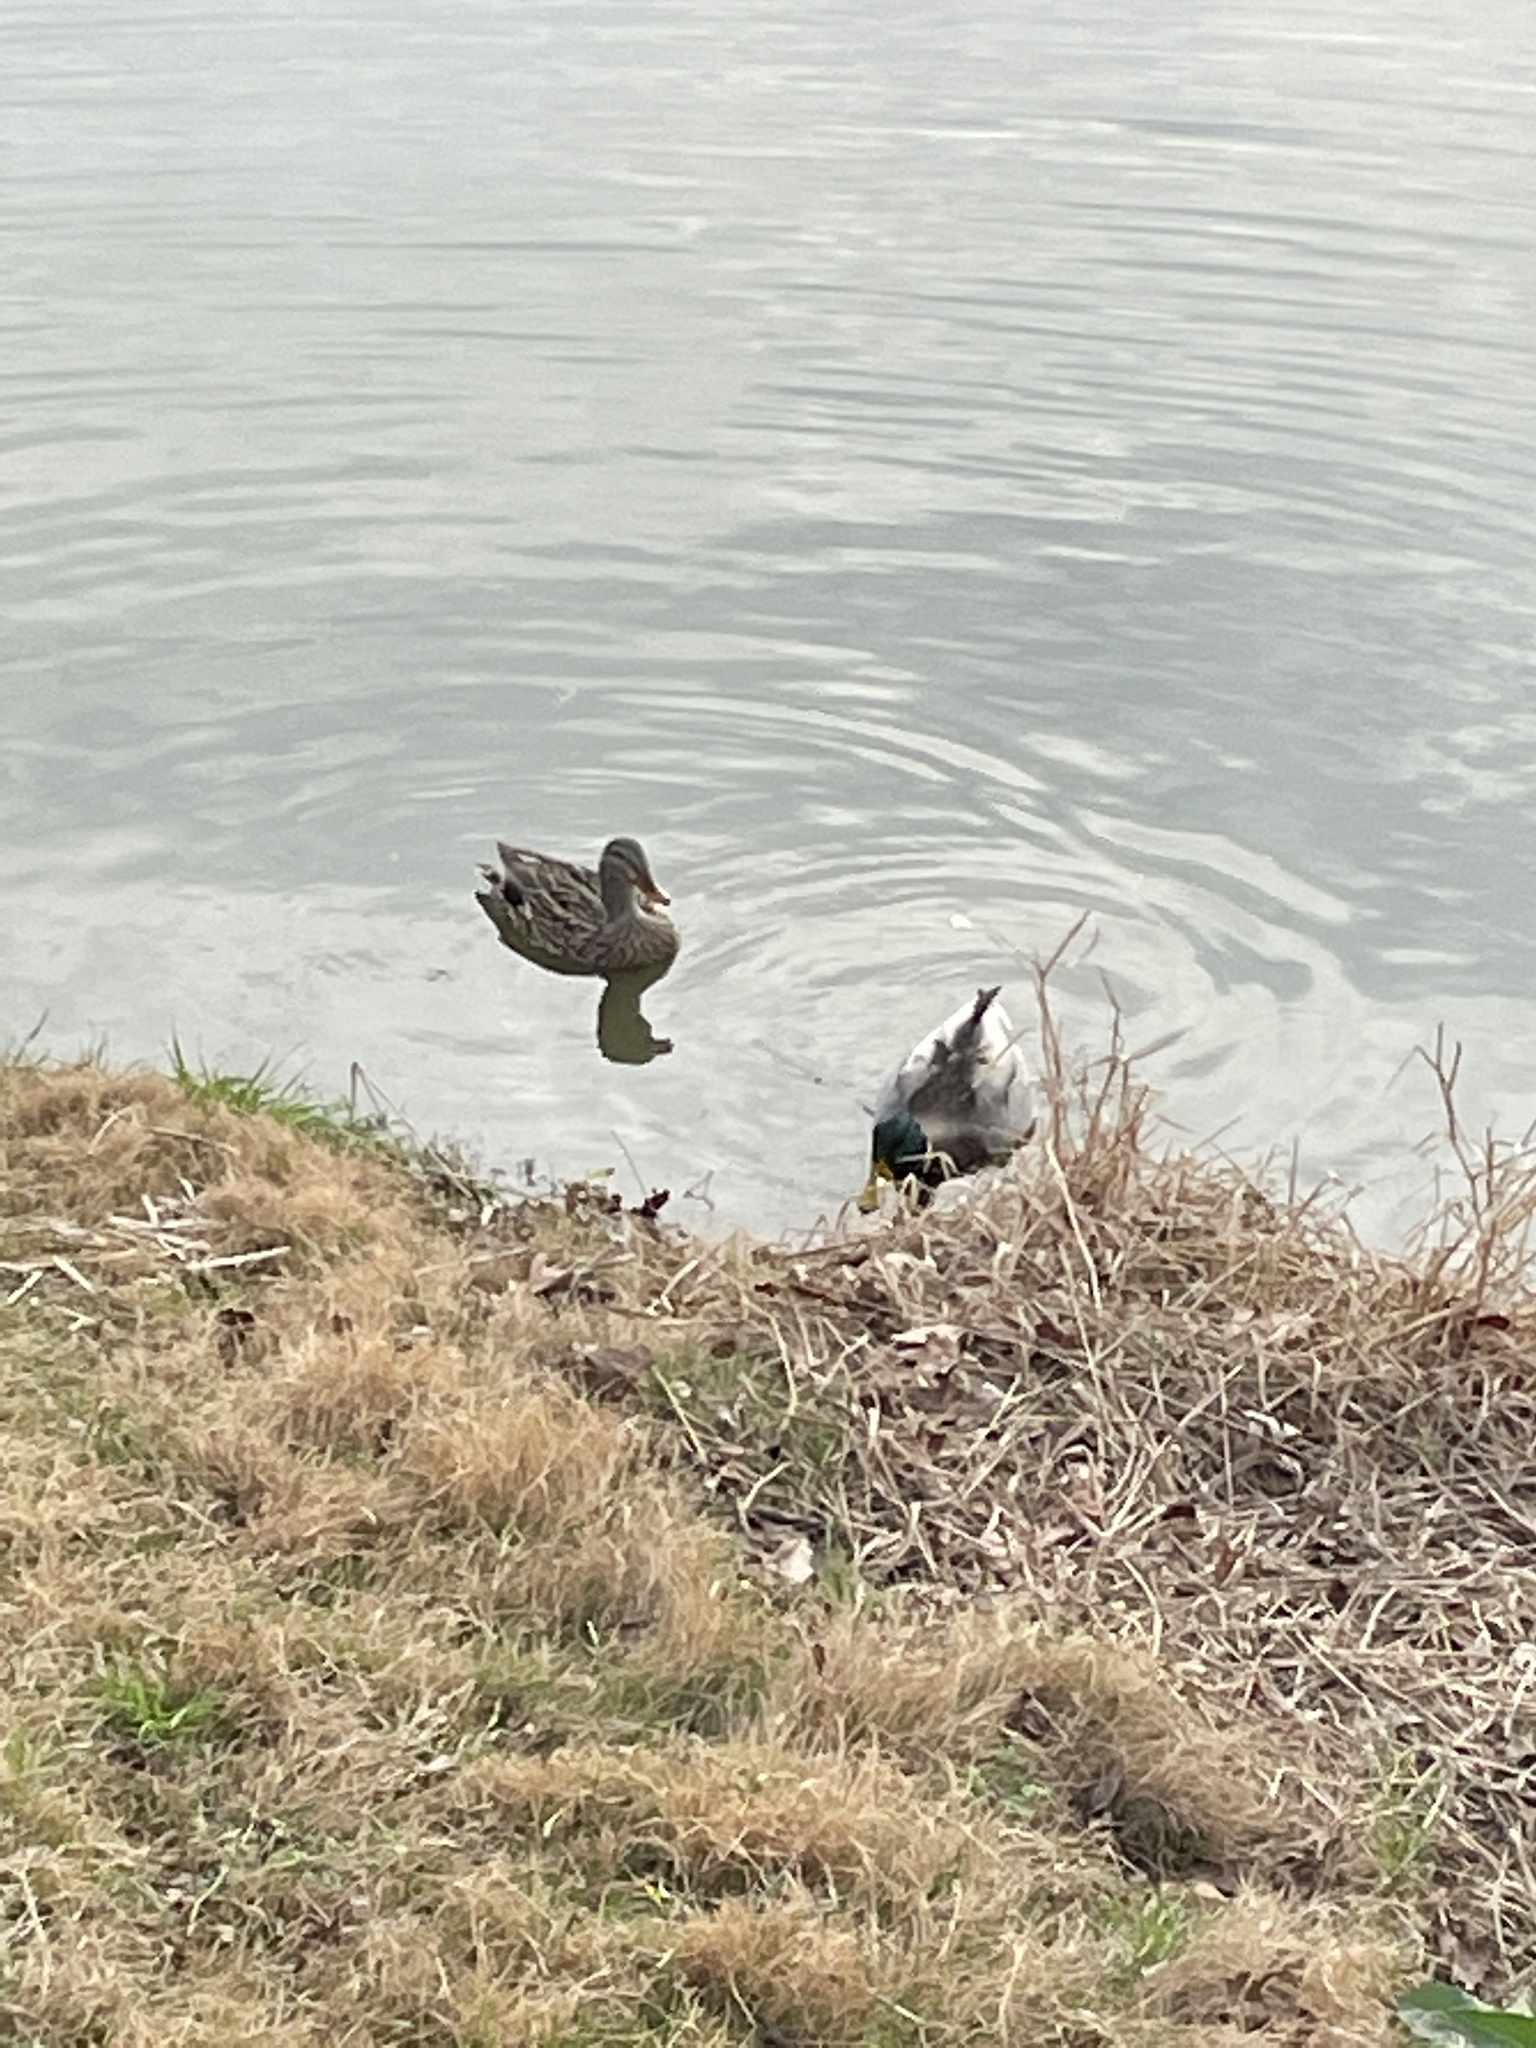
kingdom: Animalia
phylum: Chordata
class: Aves
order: Anseriformes
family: Anatidae
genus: Anas
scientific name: Anas platyrhynchos
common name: Mallard
